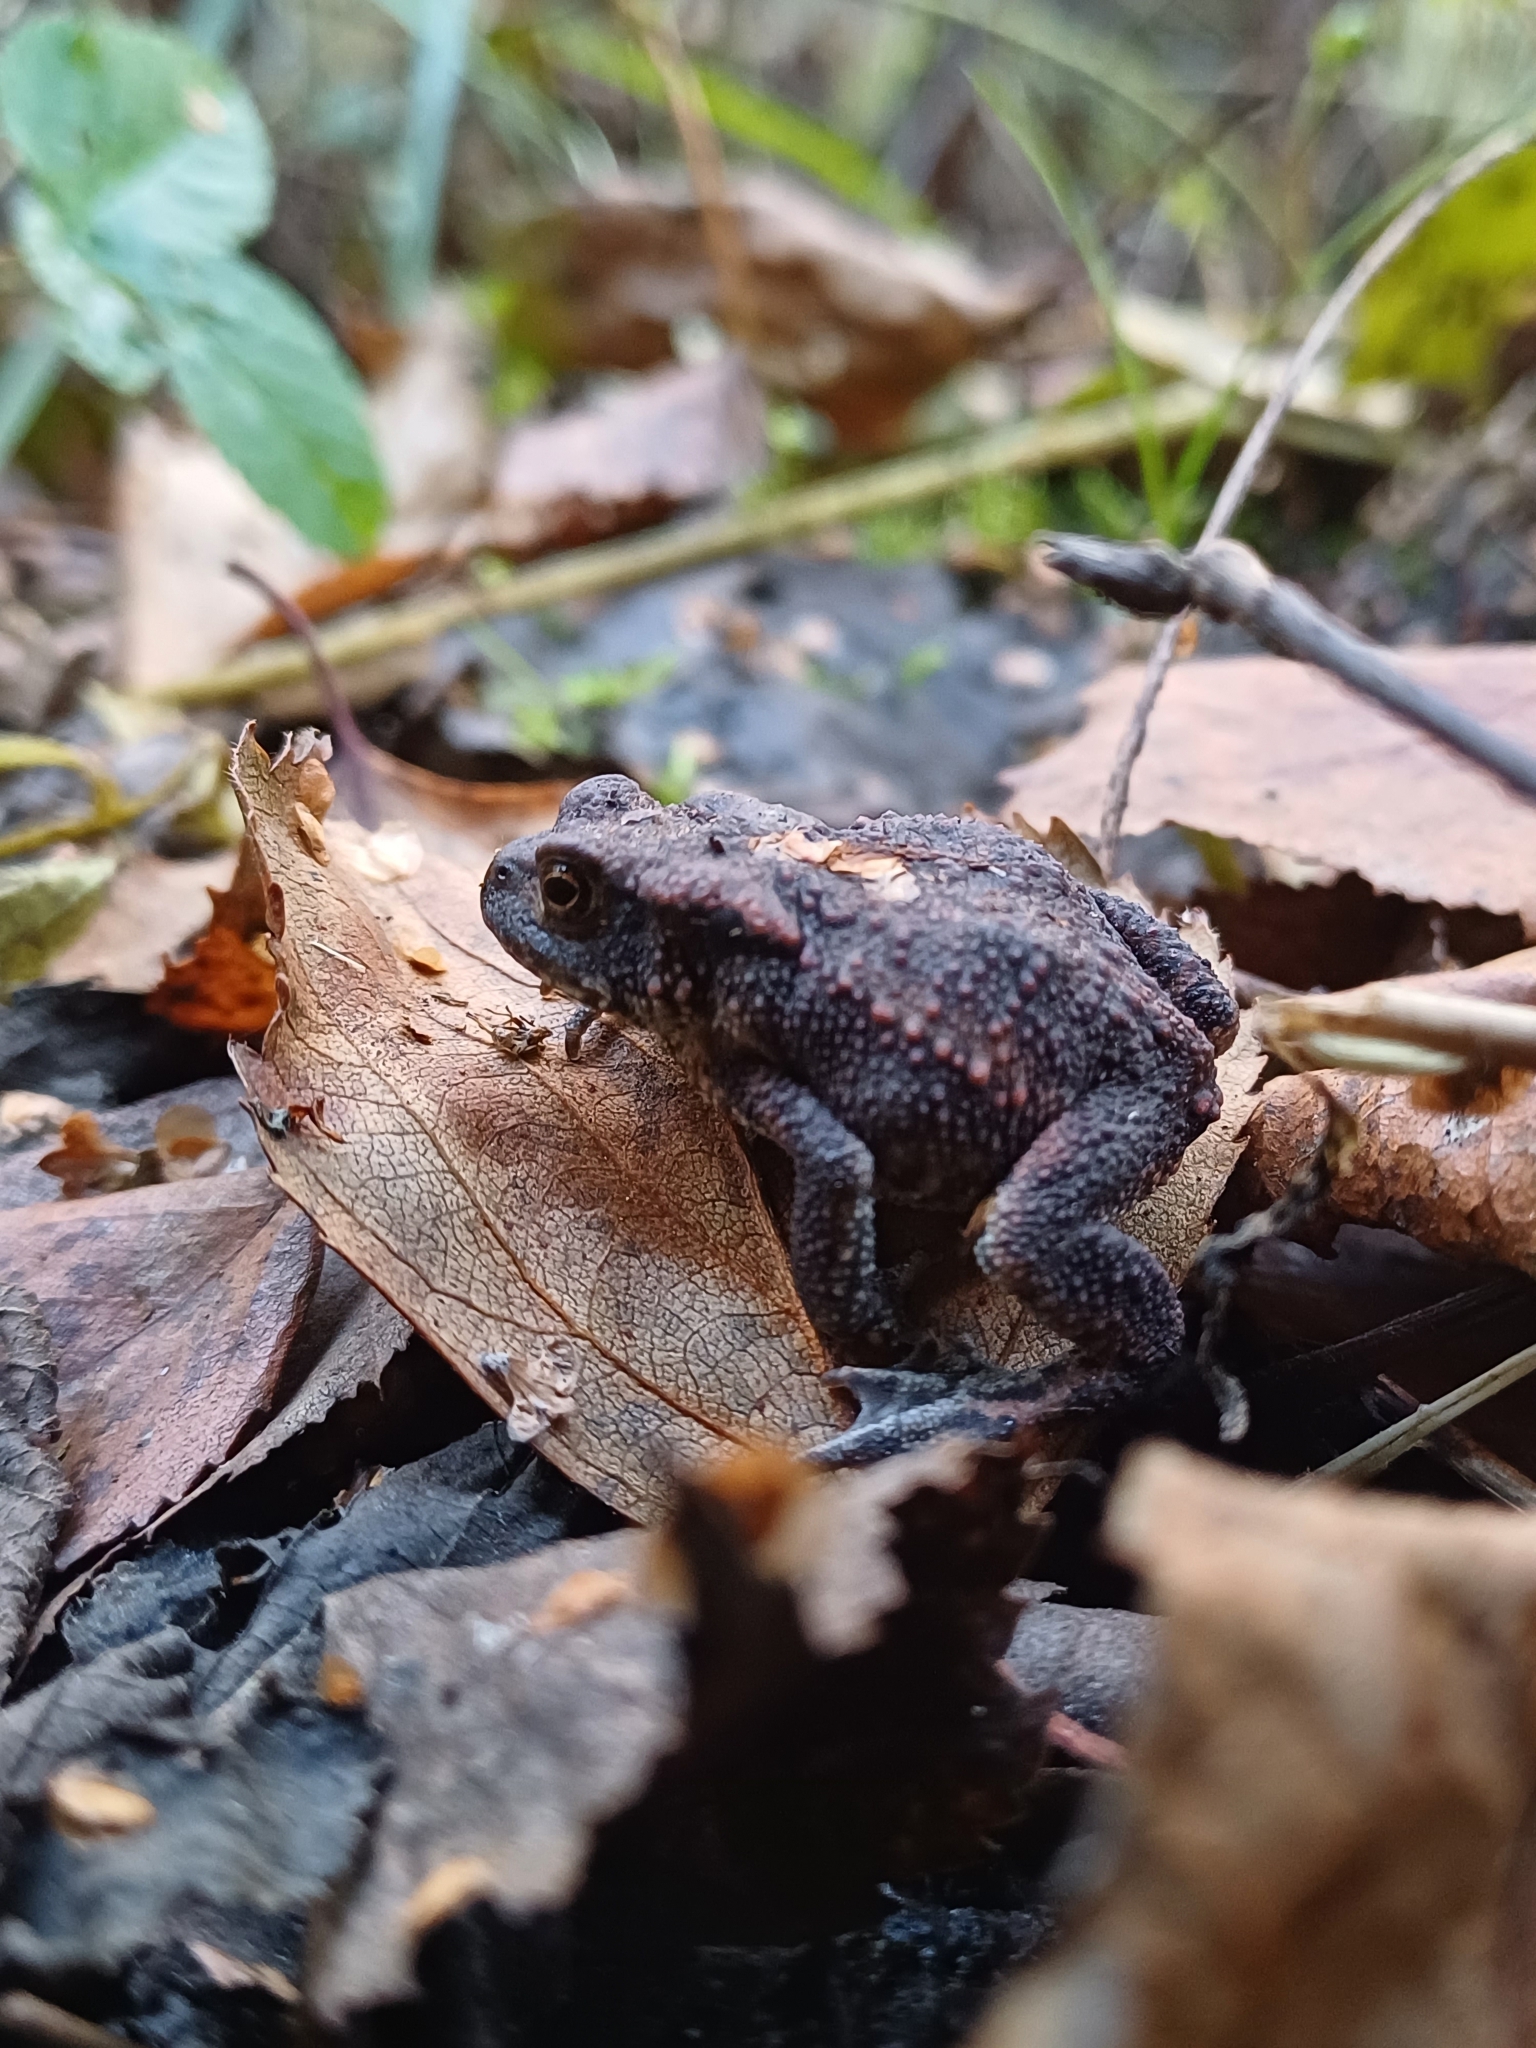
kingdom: Animalia
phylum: Chordata
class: Amphibia
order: Anura
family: Bufonidae
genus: Bufo
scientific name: Bufo bufo
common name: Common toad
